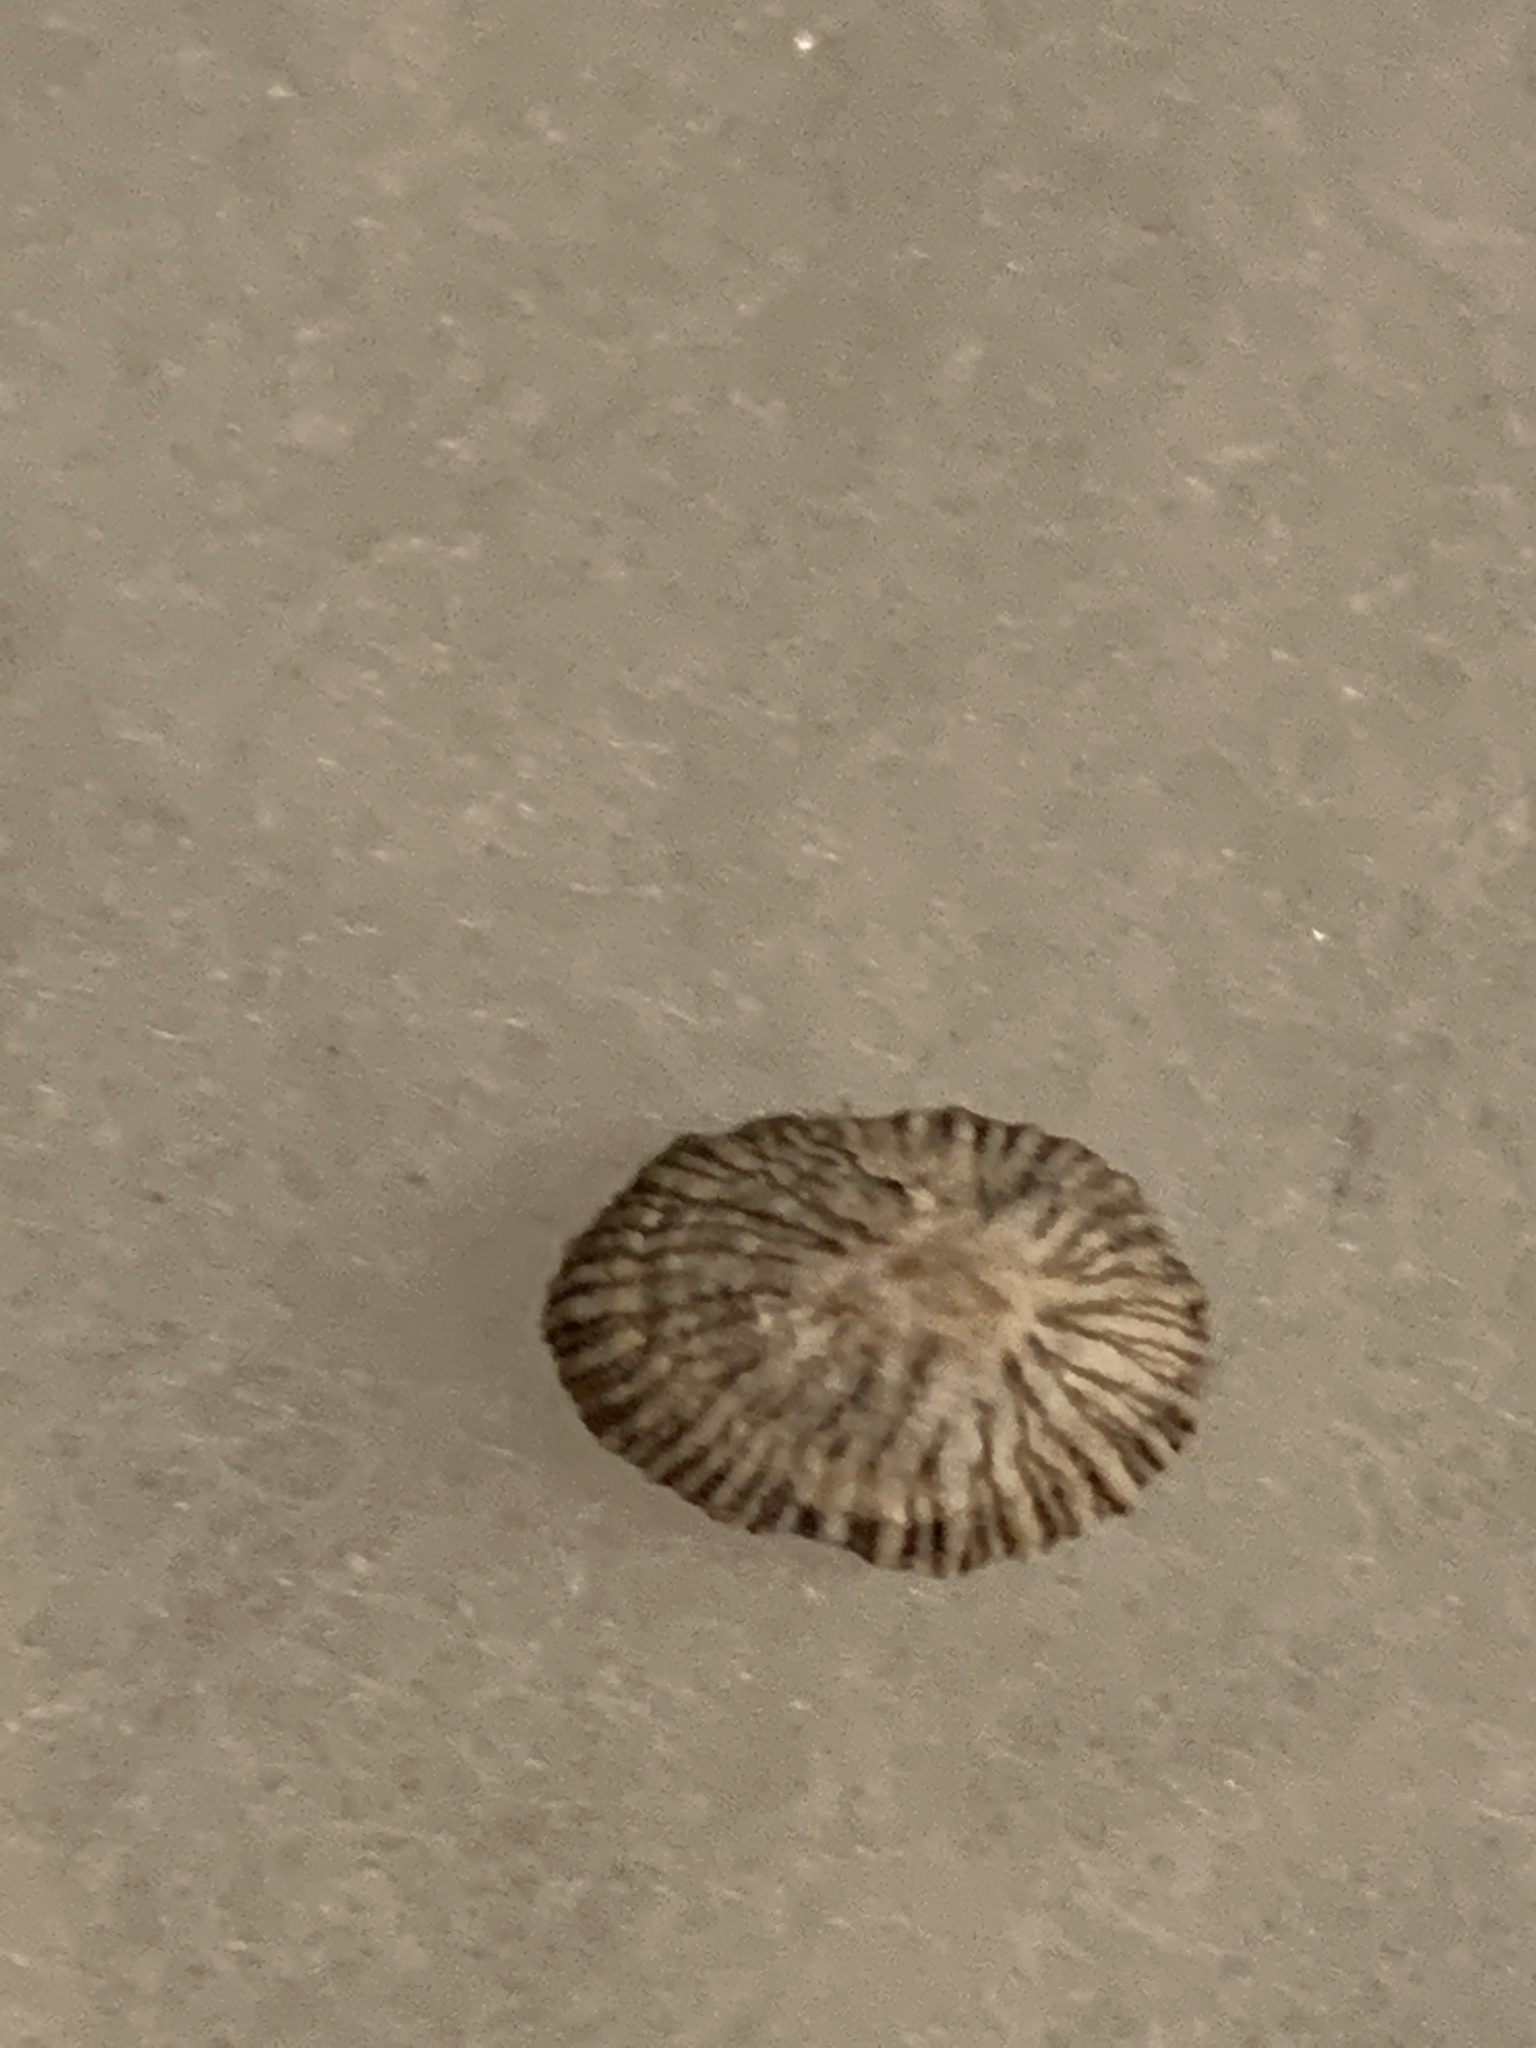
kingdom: Animalia
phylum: Mollusca
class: Gastropoda
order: Siphonariida
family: Siphonariidae
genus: Siphonaria
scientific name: Siphonaria naufragum
